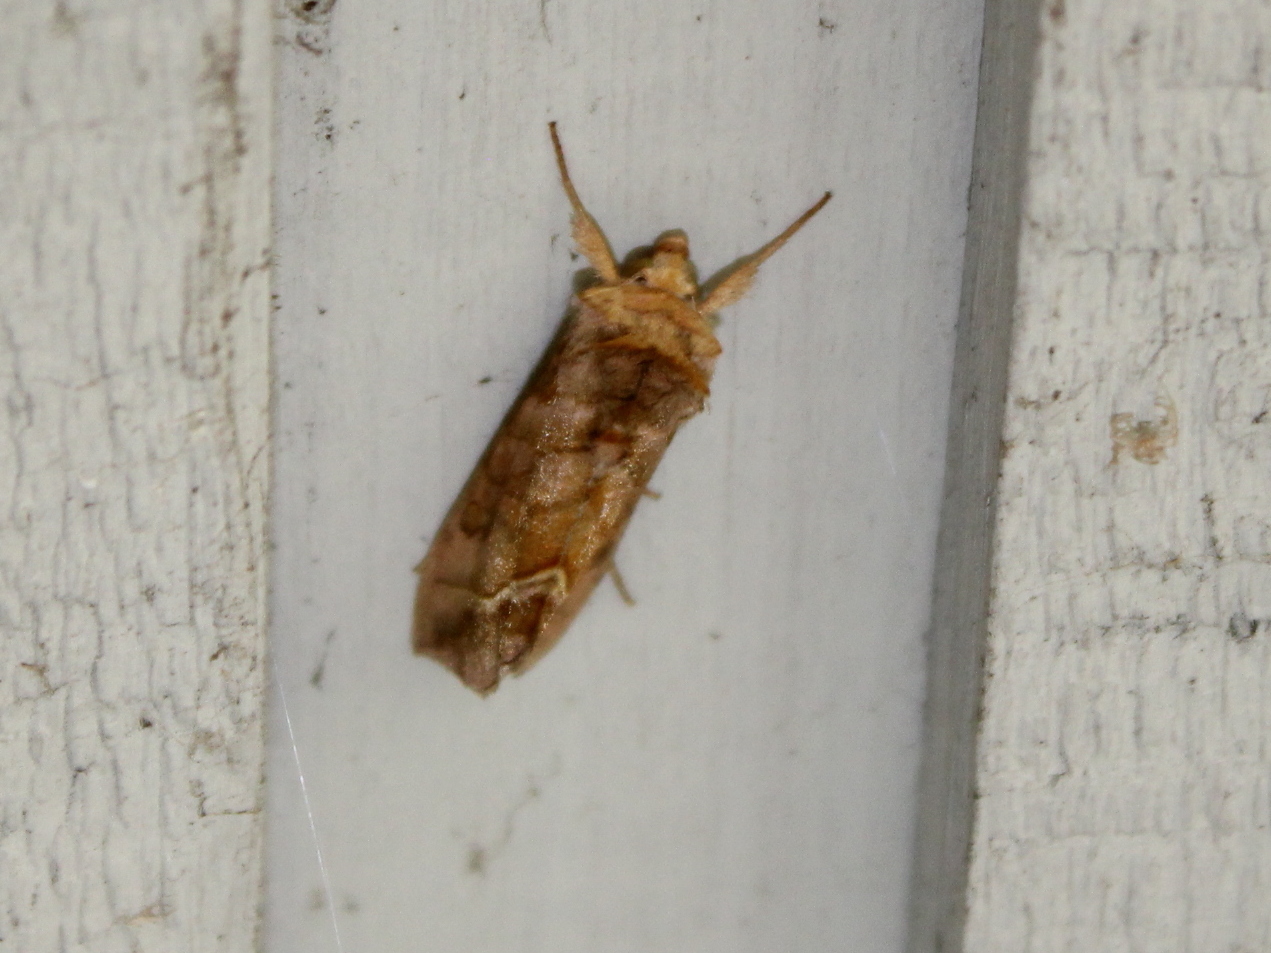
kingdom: Animalia
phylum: Arthropoda
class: Insecta
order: Lepidoptera
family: Noctuidae
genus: Diachrysia
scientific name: Diachrysia aereoides
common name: Dark-spotted looper moth
